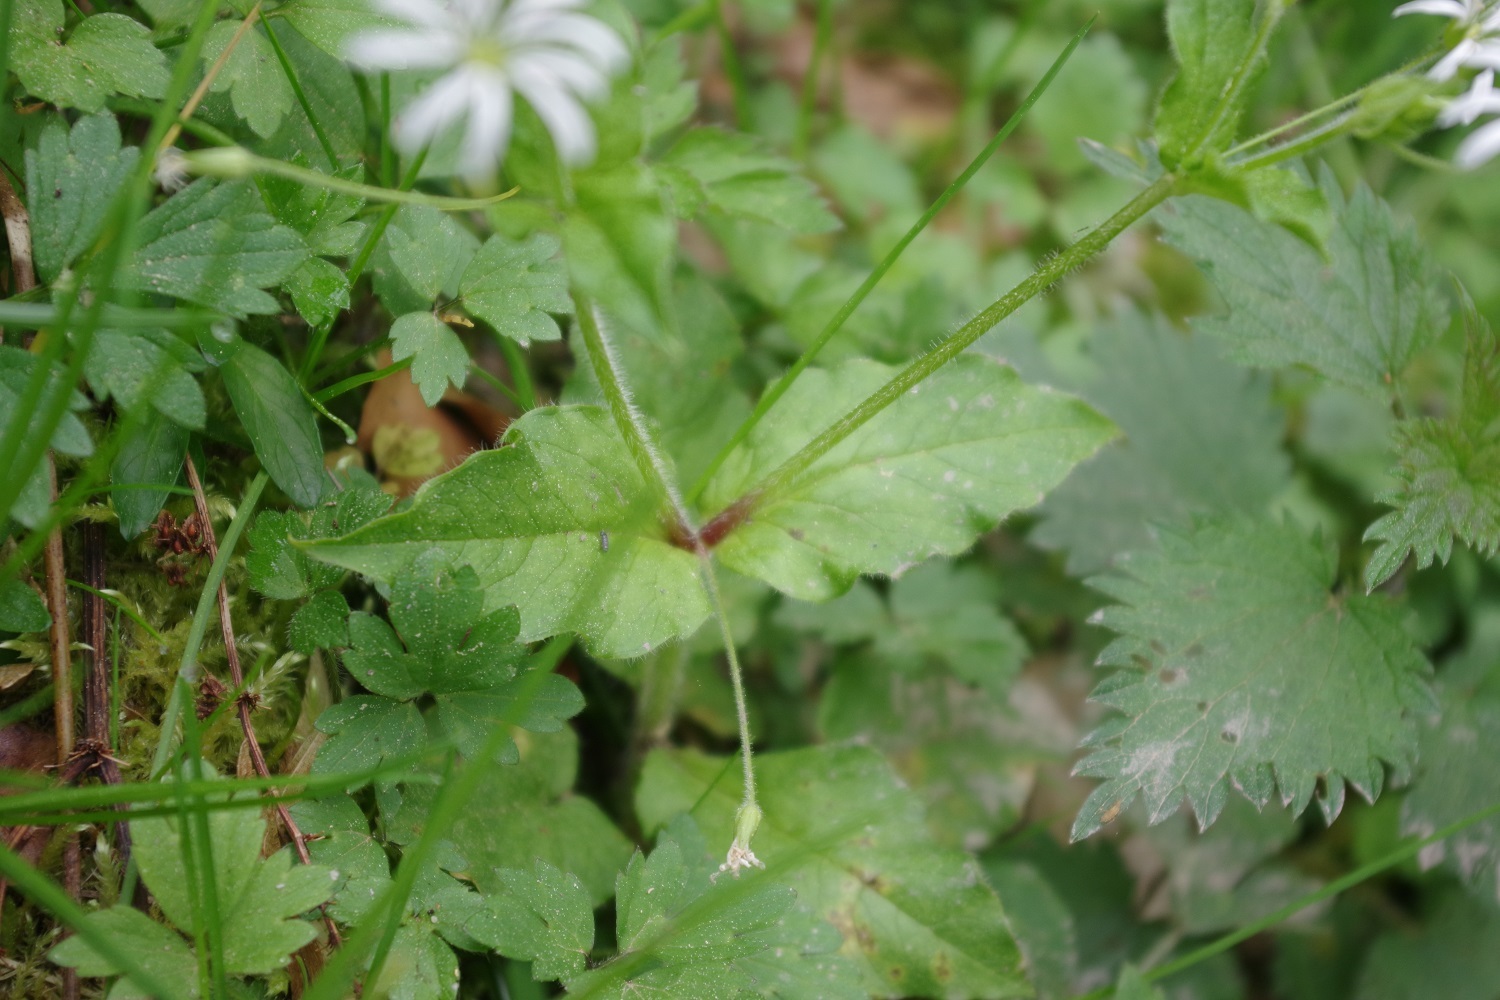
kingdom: Plantae
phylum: Tracheophyta
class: Magnoliopsida
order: Caryophyllales
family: Caryophyllaceae
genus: Stellaria
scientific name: Stellaria nemorum
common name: Wood stitchwort
